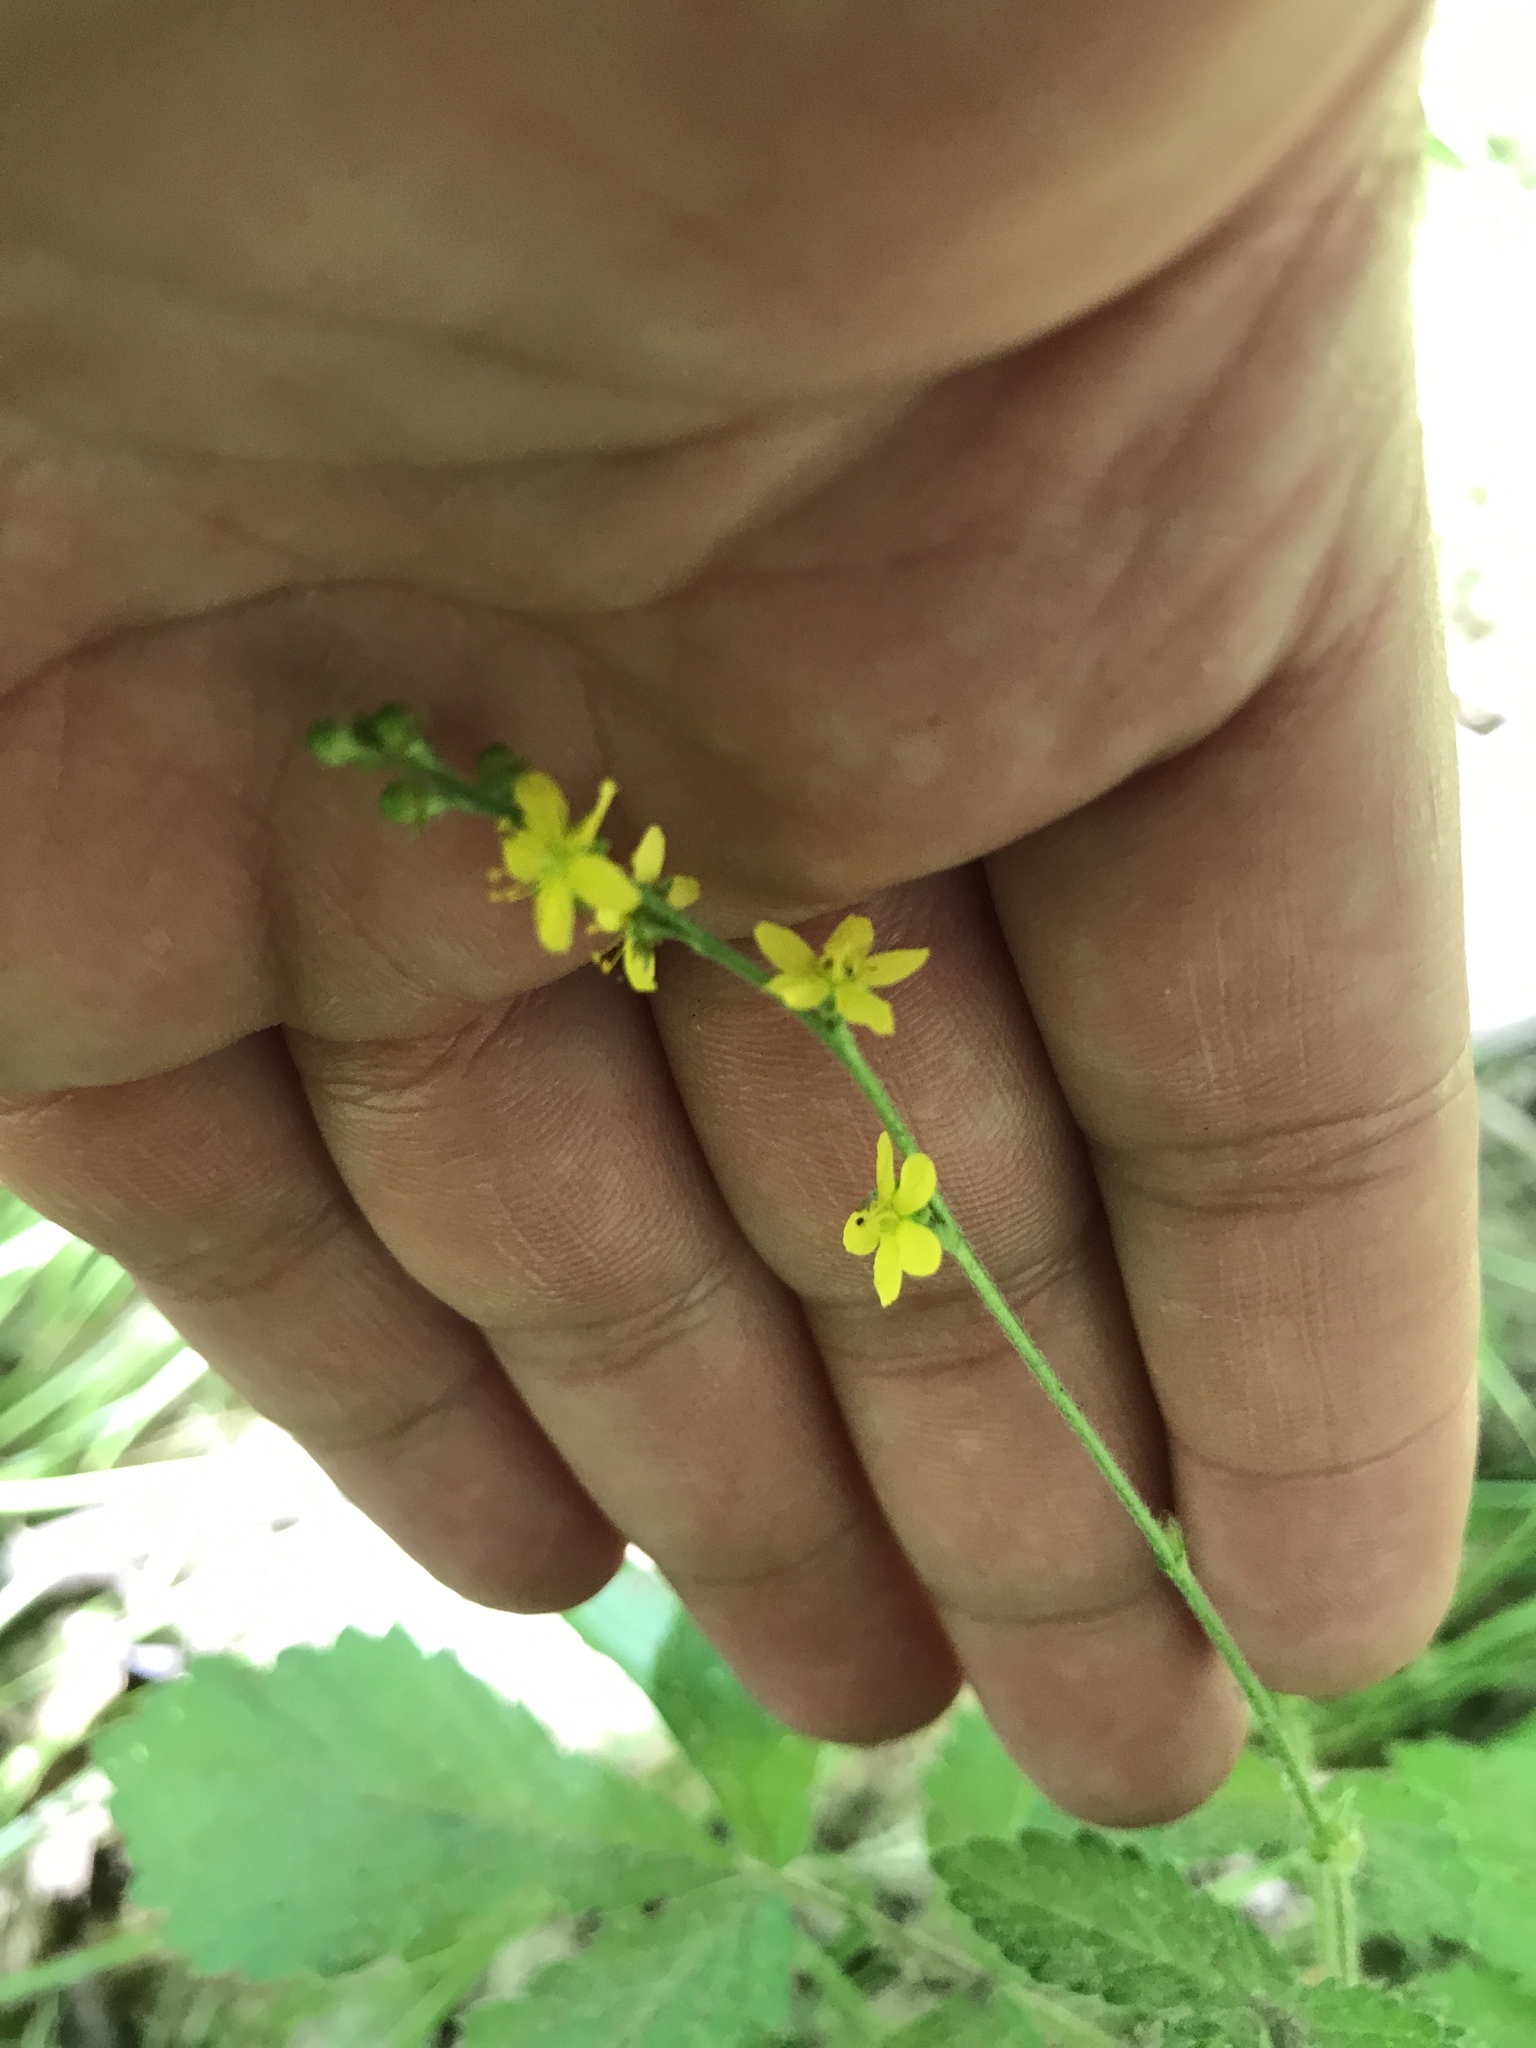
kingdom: Plantae
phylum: Tracheophyta
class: Magnoliopsida
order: Rosales
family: Rosaceae
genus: Agrimonia
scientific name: Agrimonia gryposepala
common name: Common agrimony
